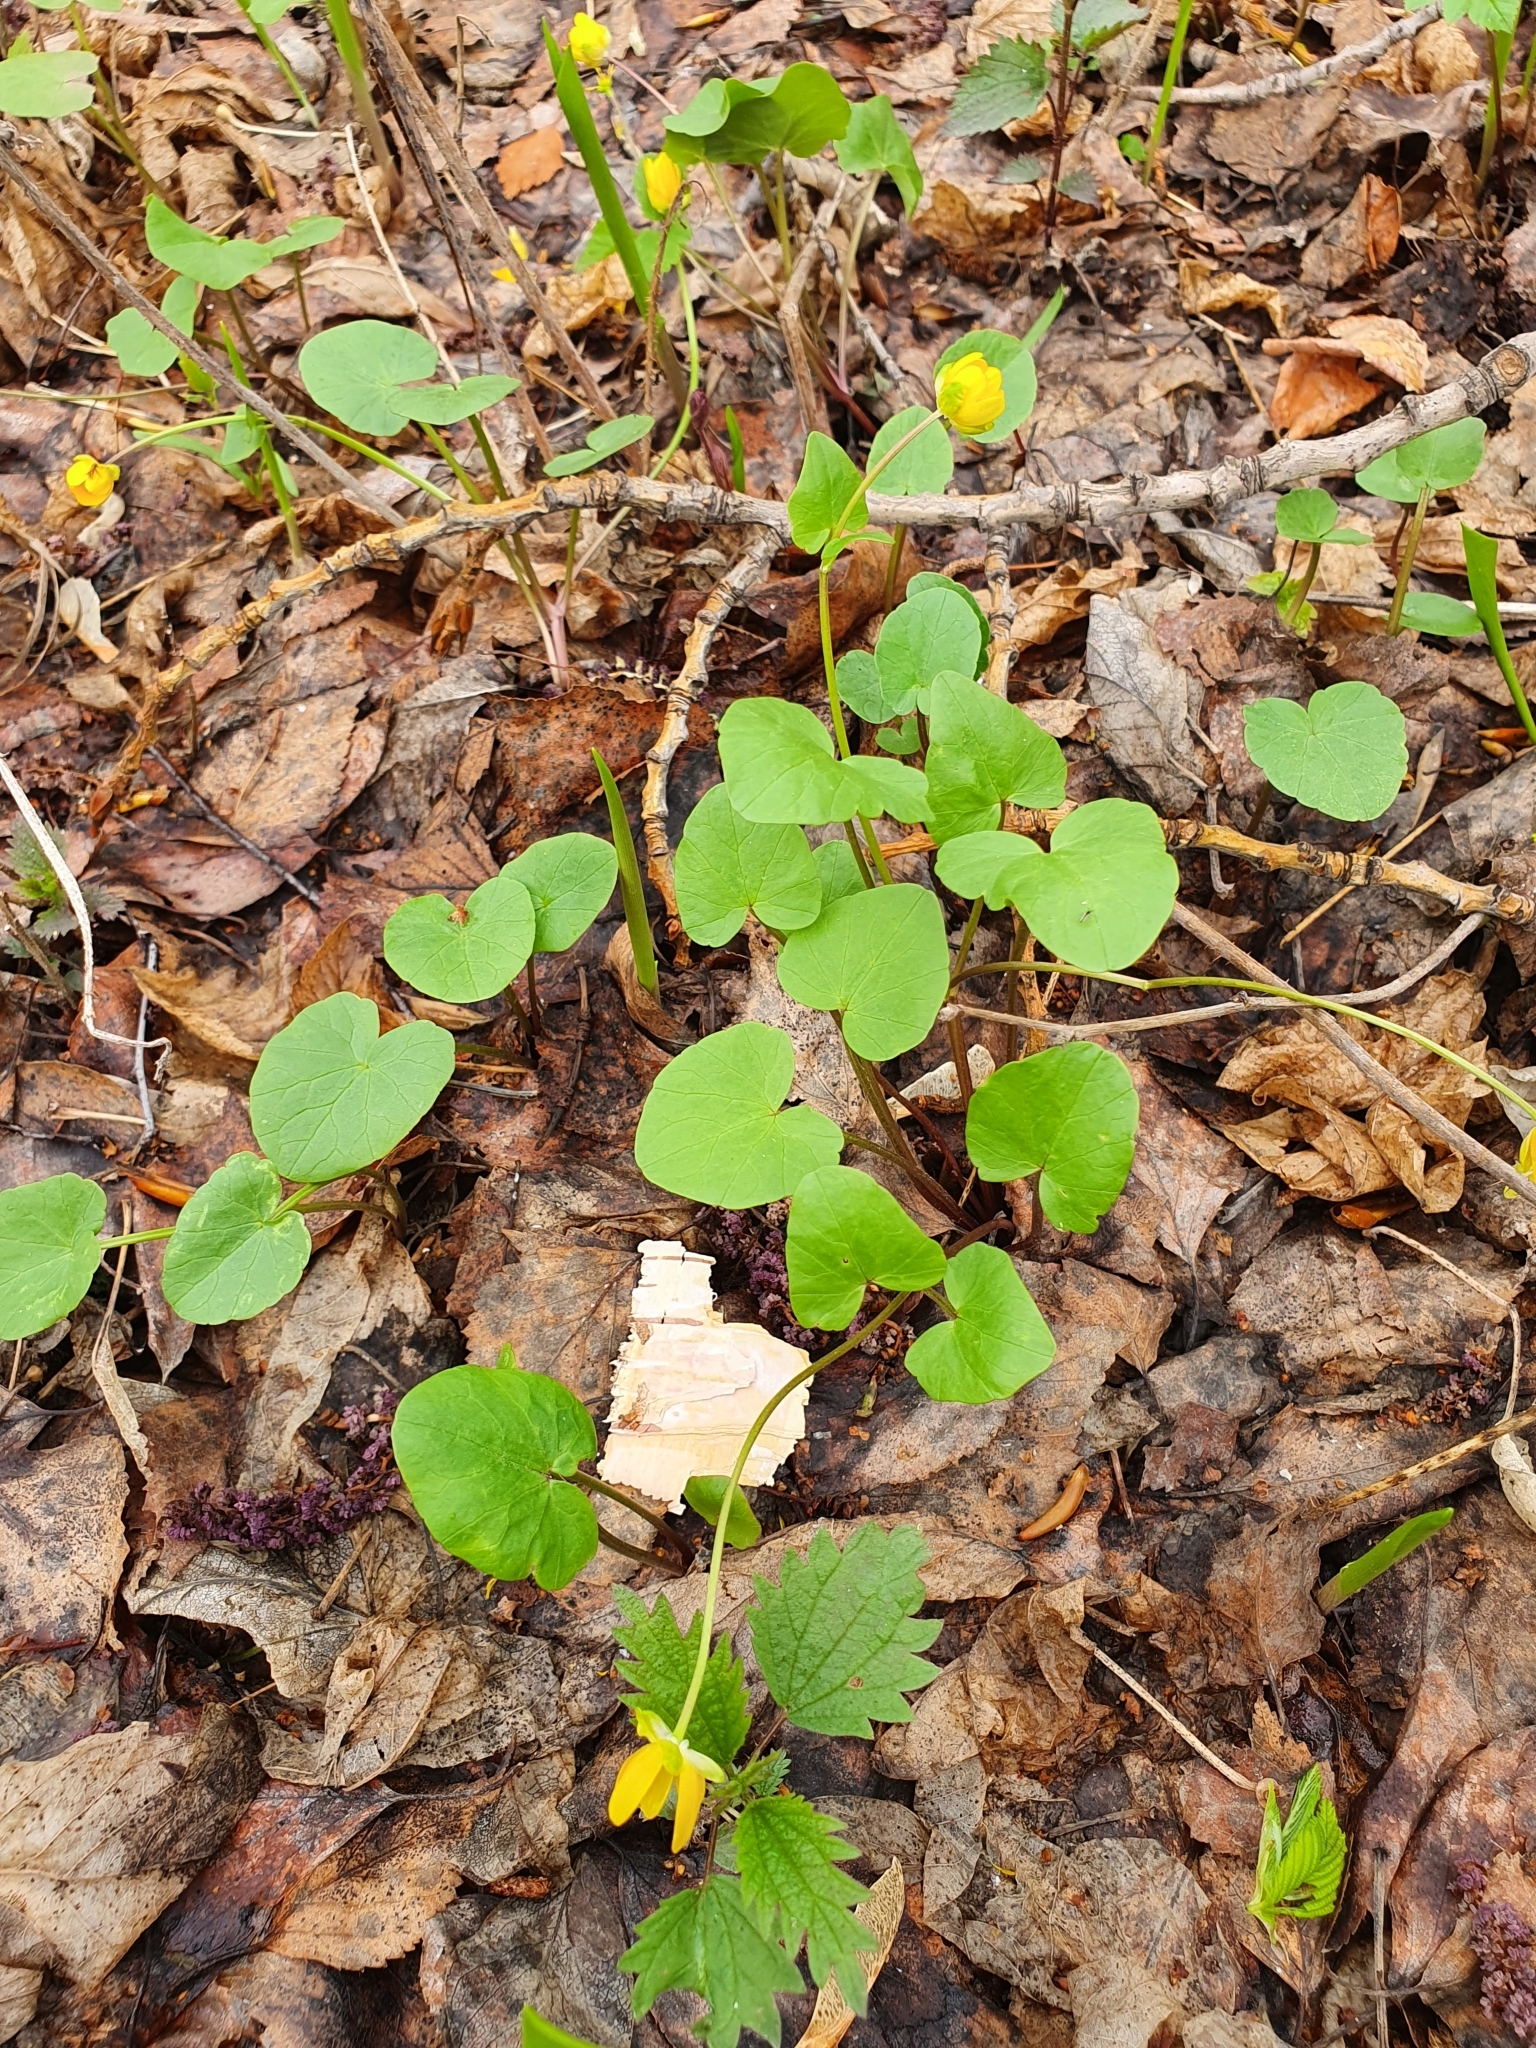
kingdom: Plantae
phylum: Tracheophyta
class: Magnoliopsida
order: Ranunculales
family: Ranunculaceae
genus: Ficaria
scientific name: Ficaria verna
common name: Lesser celandine
